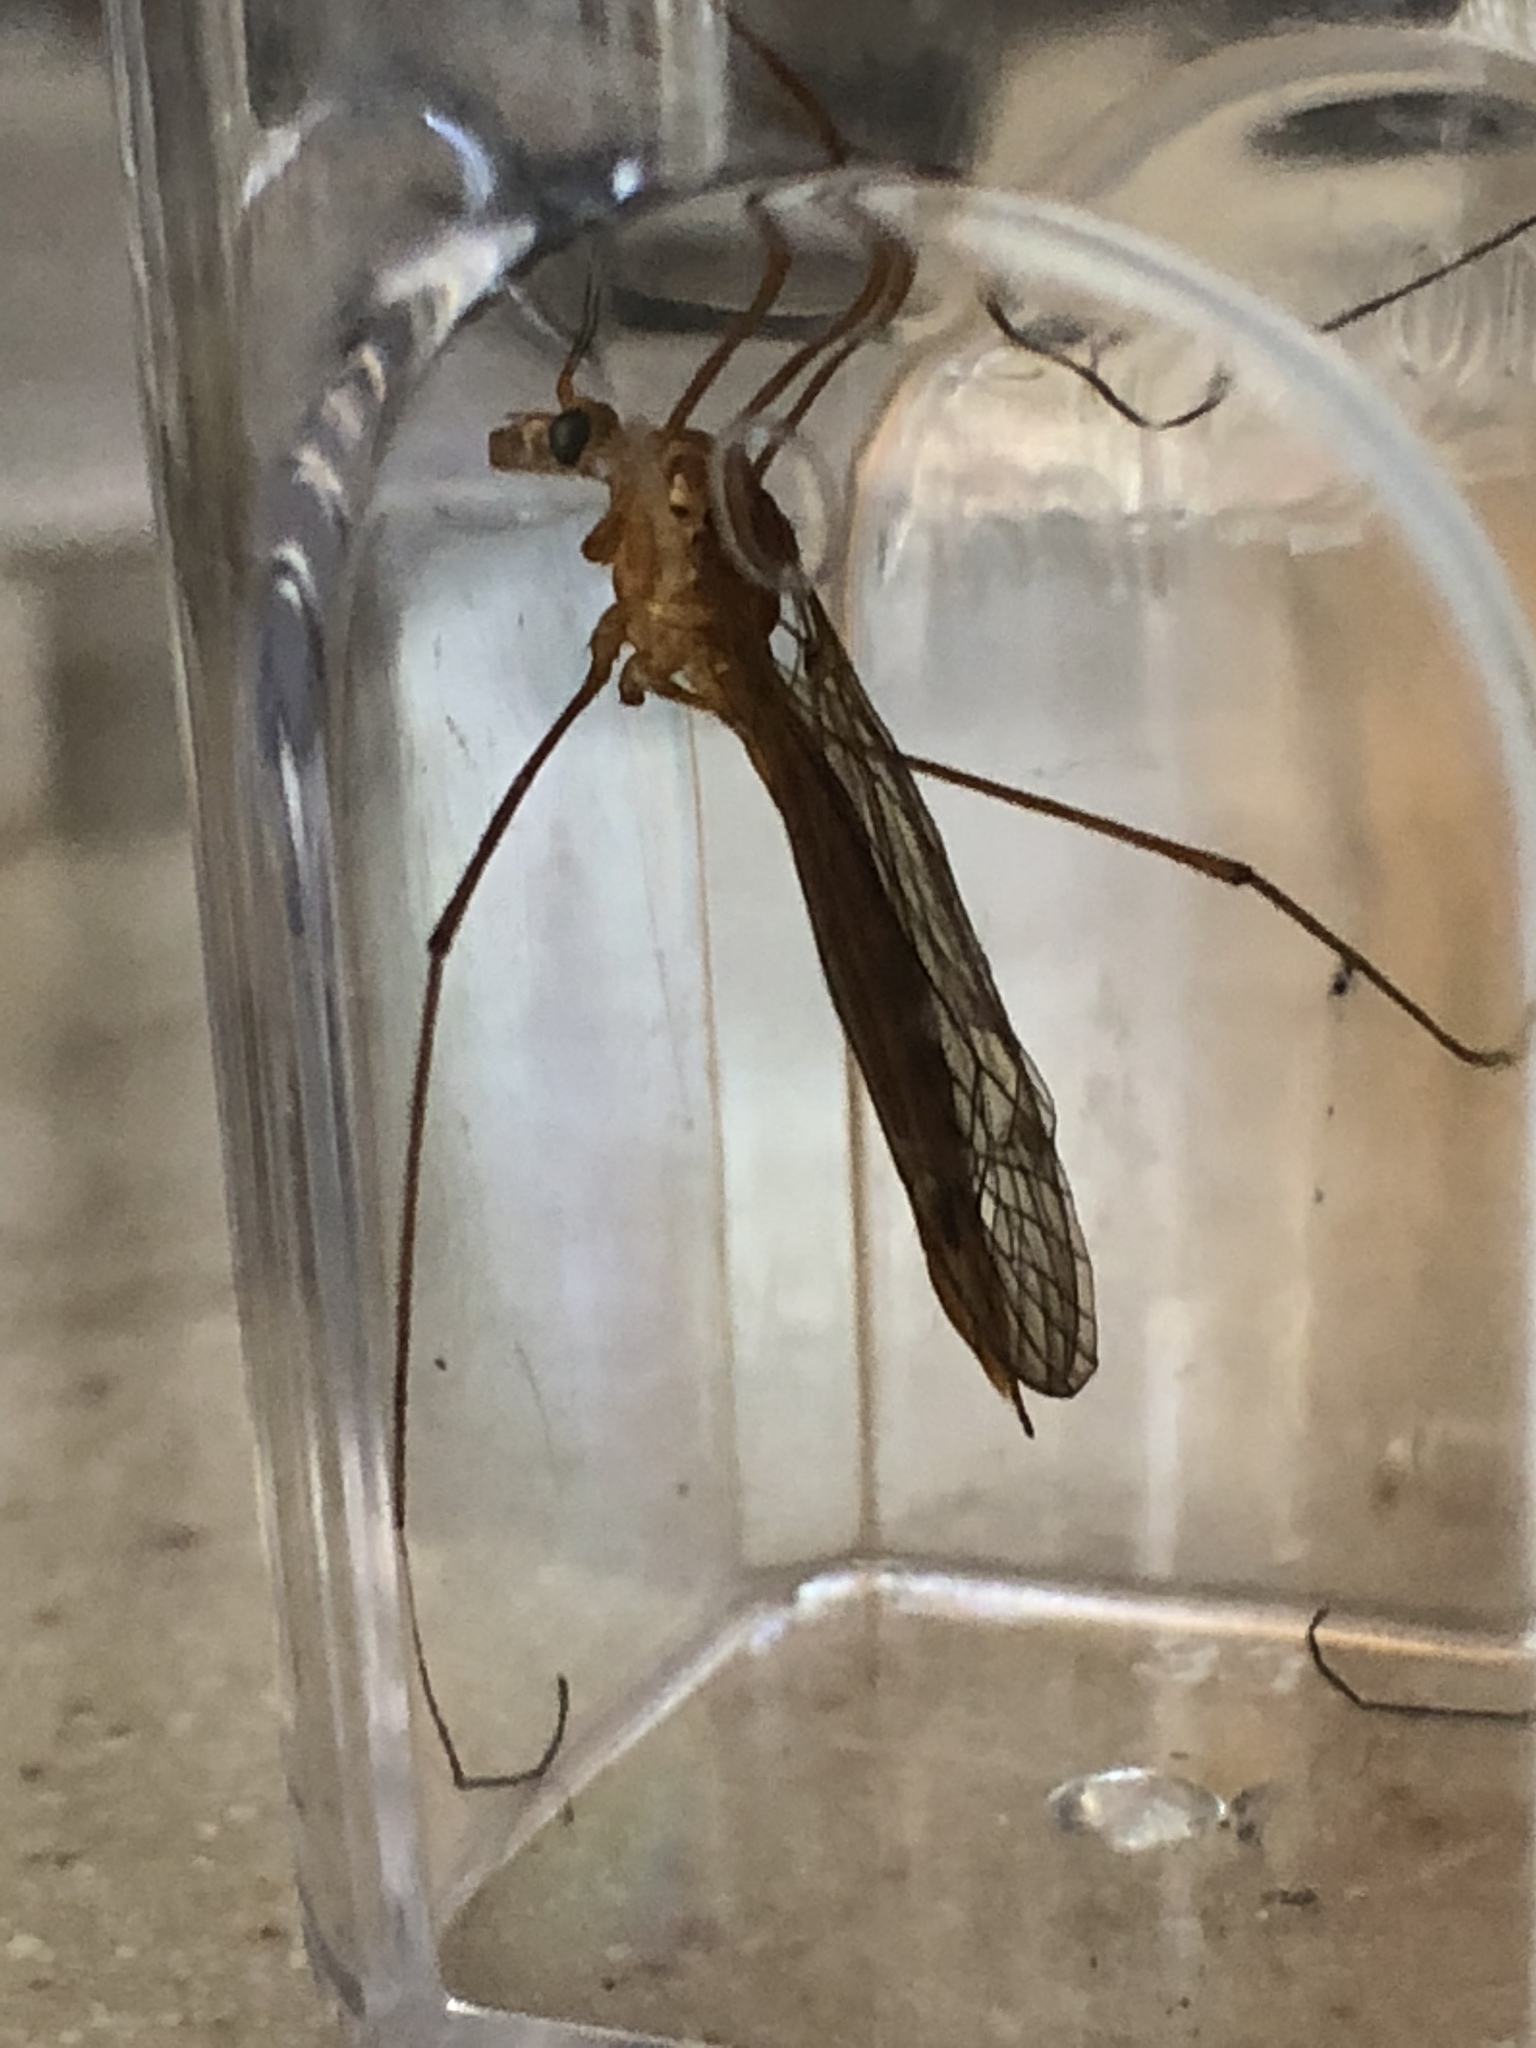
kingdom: Animalia
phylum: Arthropoda
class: Insecta
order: Diptera
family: Tipulidae
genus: Nephrotoma
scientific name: Nephrotoma
